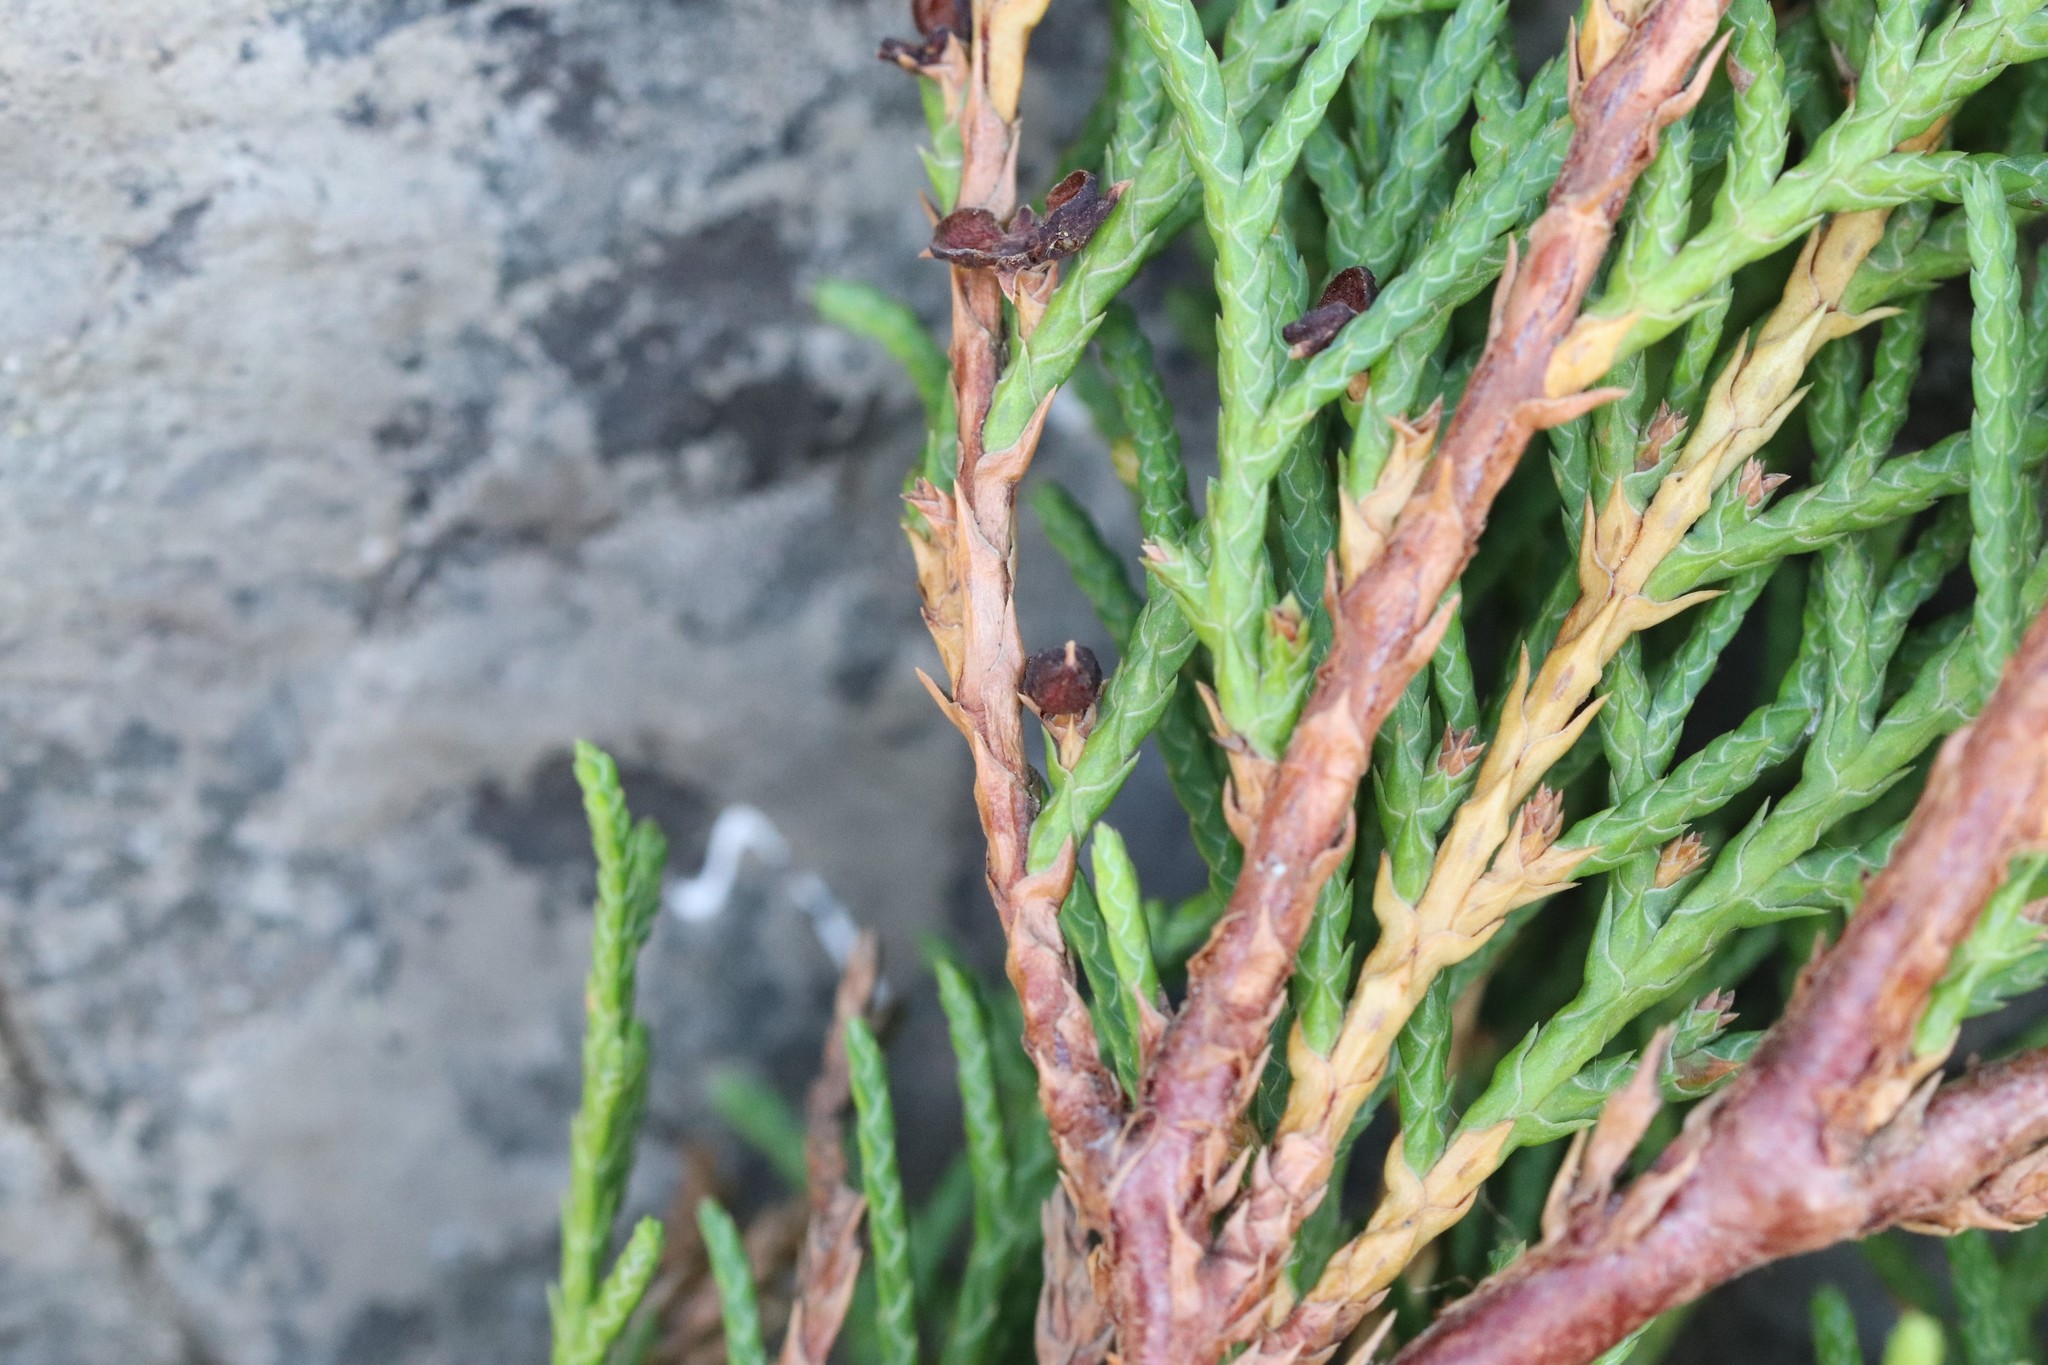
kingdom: Plantae
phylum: Tracheophyta
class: Pinopsida
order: Pinales
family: Cupressaceae
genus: Microbiota
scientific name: Microbiota decussata
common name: Siberian cypress
